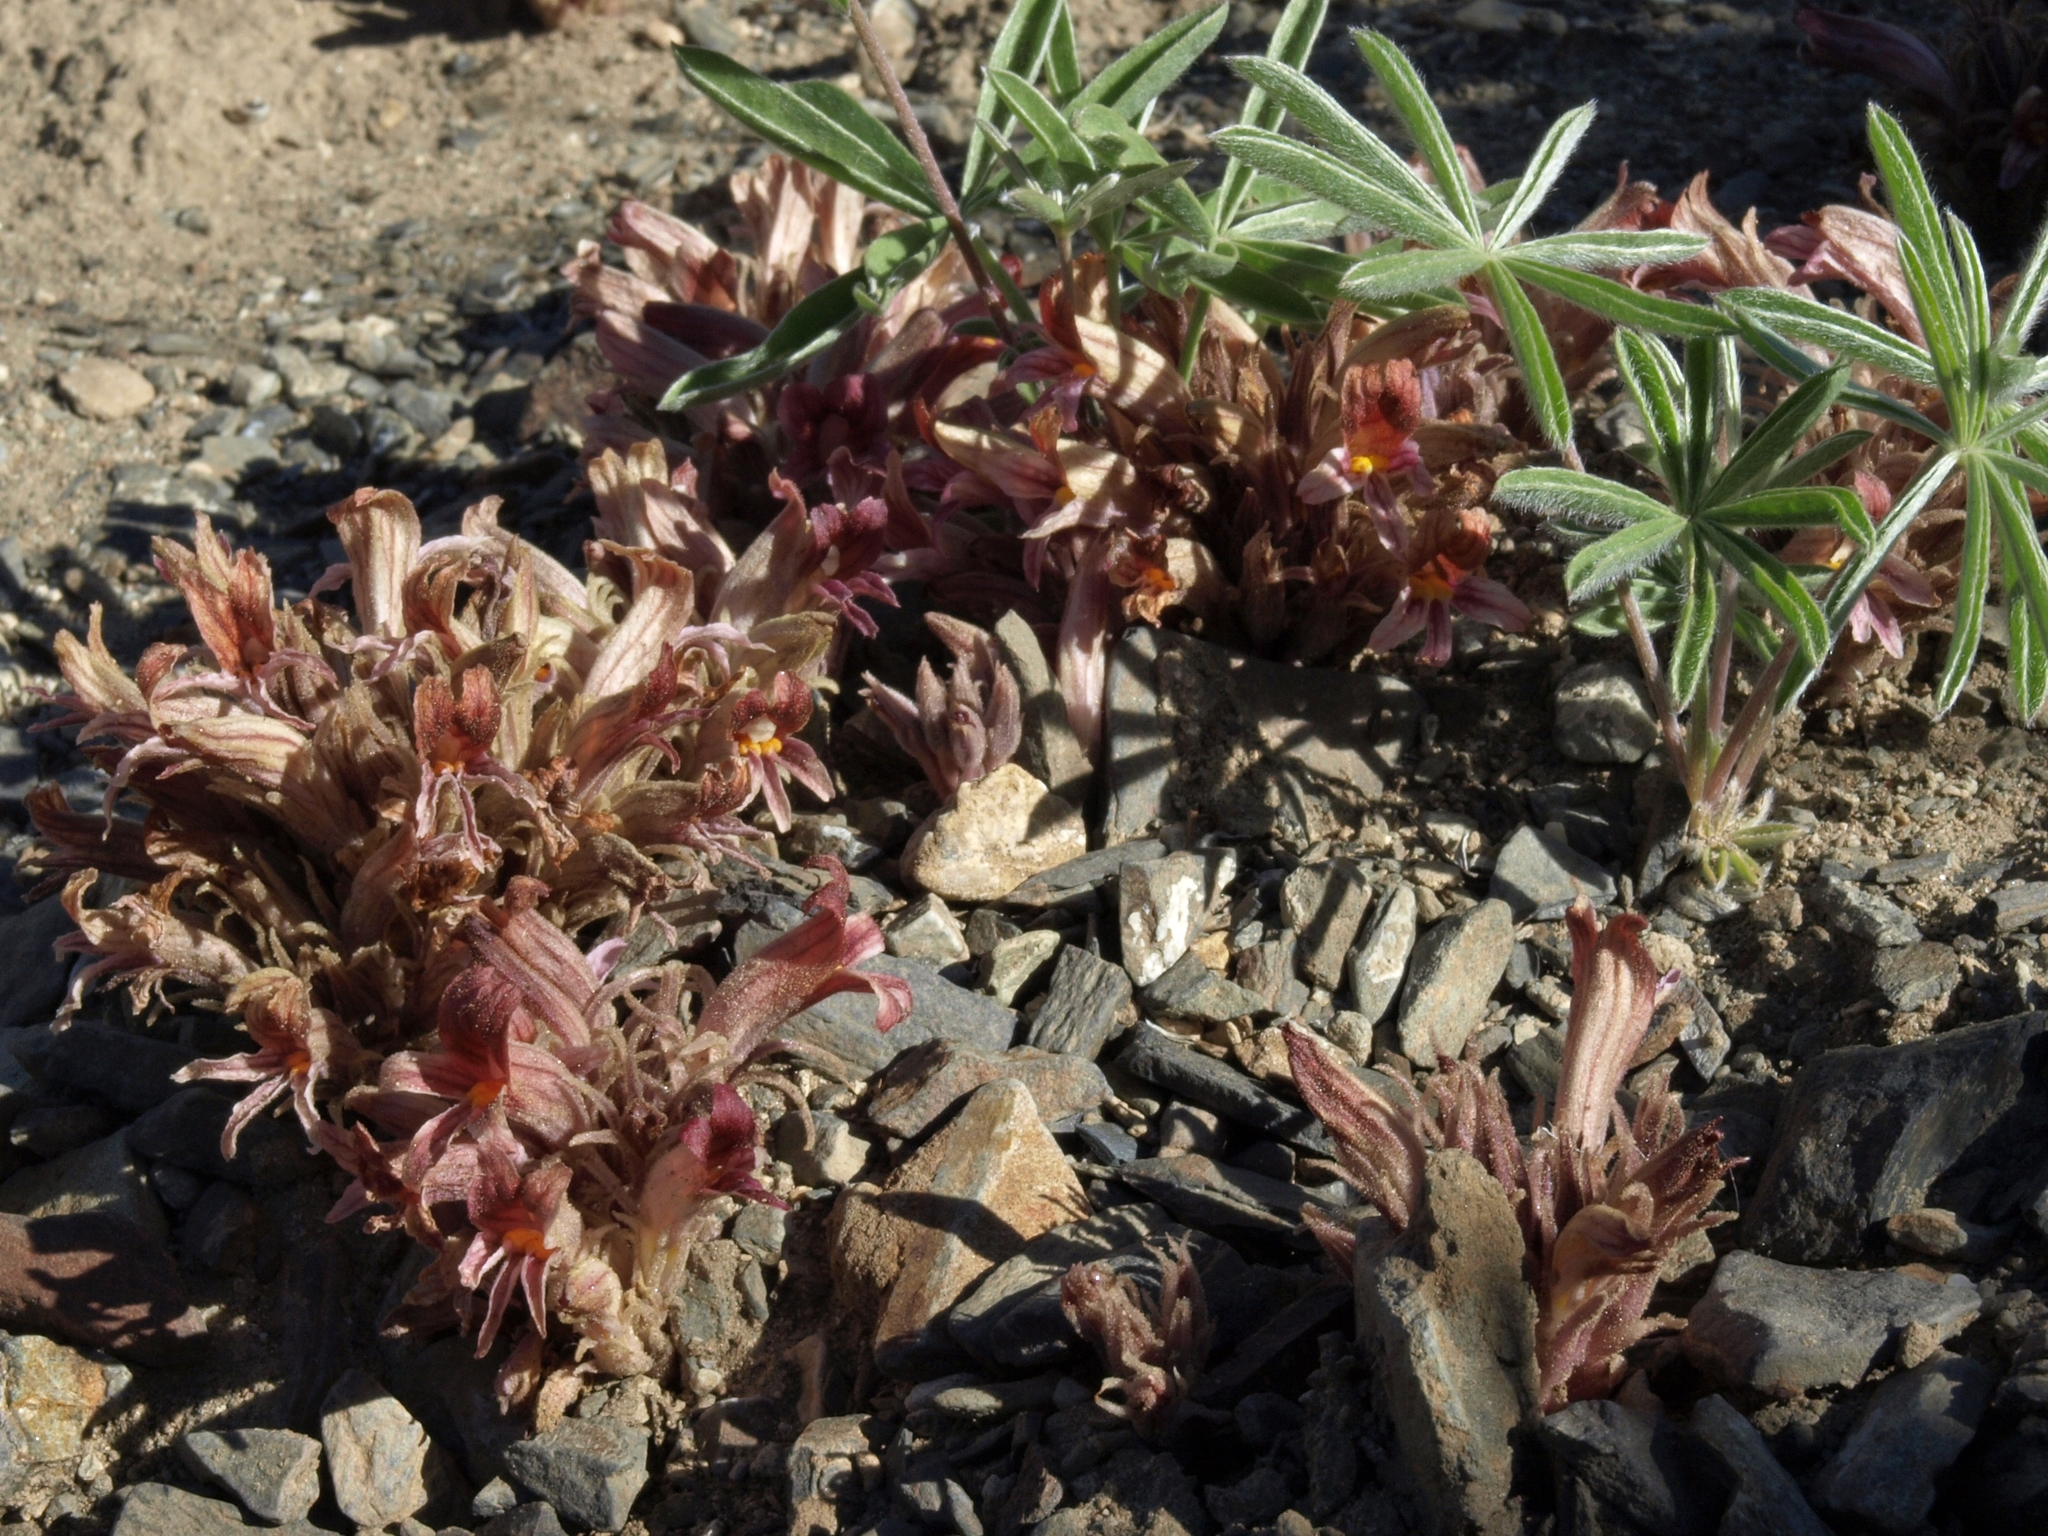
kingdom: Plantae
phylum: Tracheophyta
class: Magnoliopsida
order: Lamiales
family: Orobanchaceae
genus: Aphyllon
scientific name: Aphyllon corymbosum
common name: Flat-top broomrape
